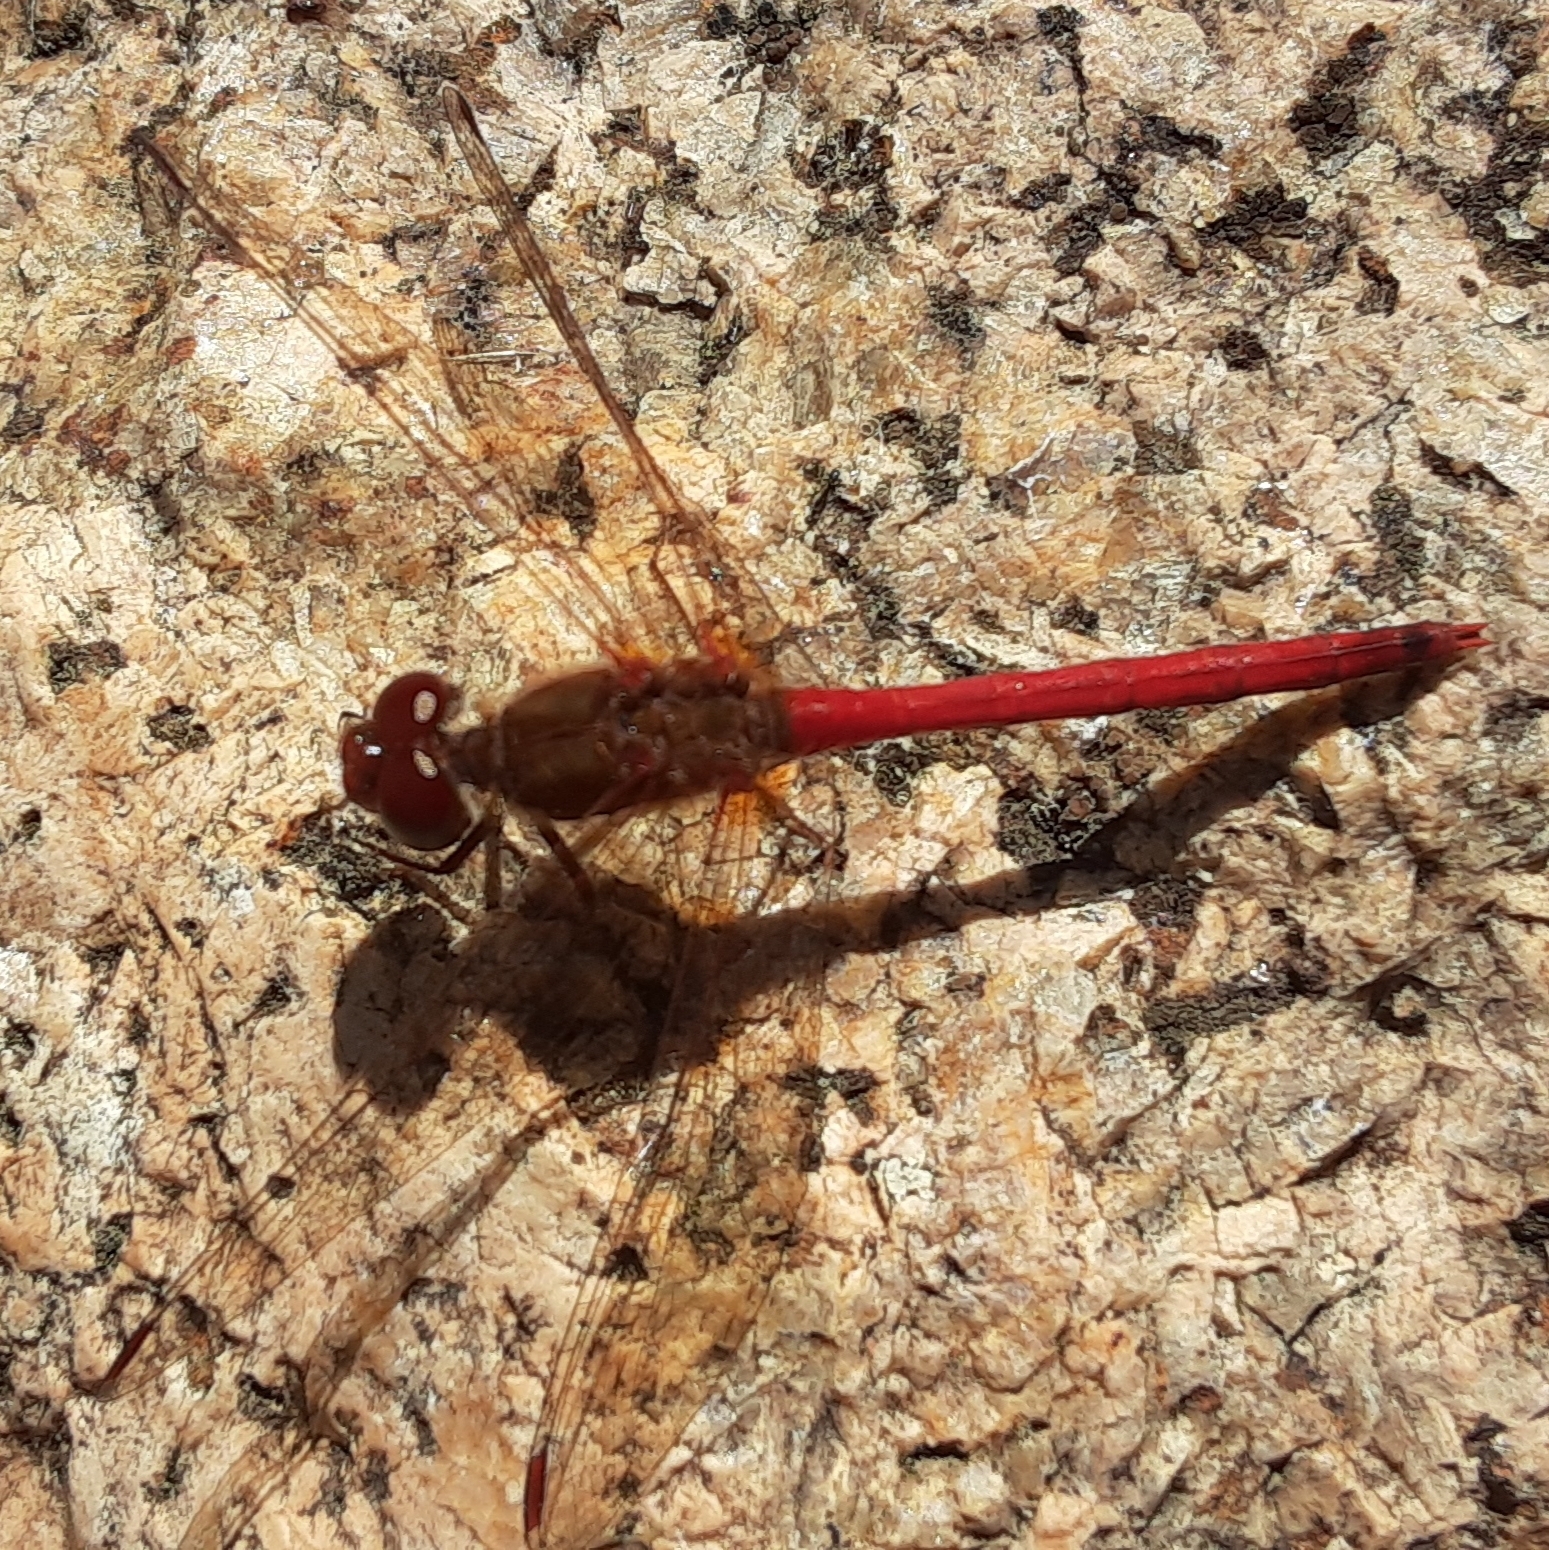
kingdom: Animalia
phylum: Arthropoda
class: Insecta
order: Odonata
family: Libellulidae
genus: Sympetrum
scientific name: Sympetrum vicinum
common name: Autumn meadowhawk
